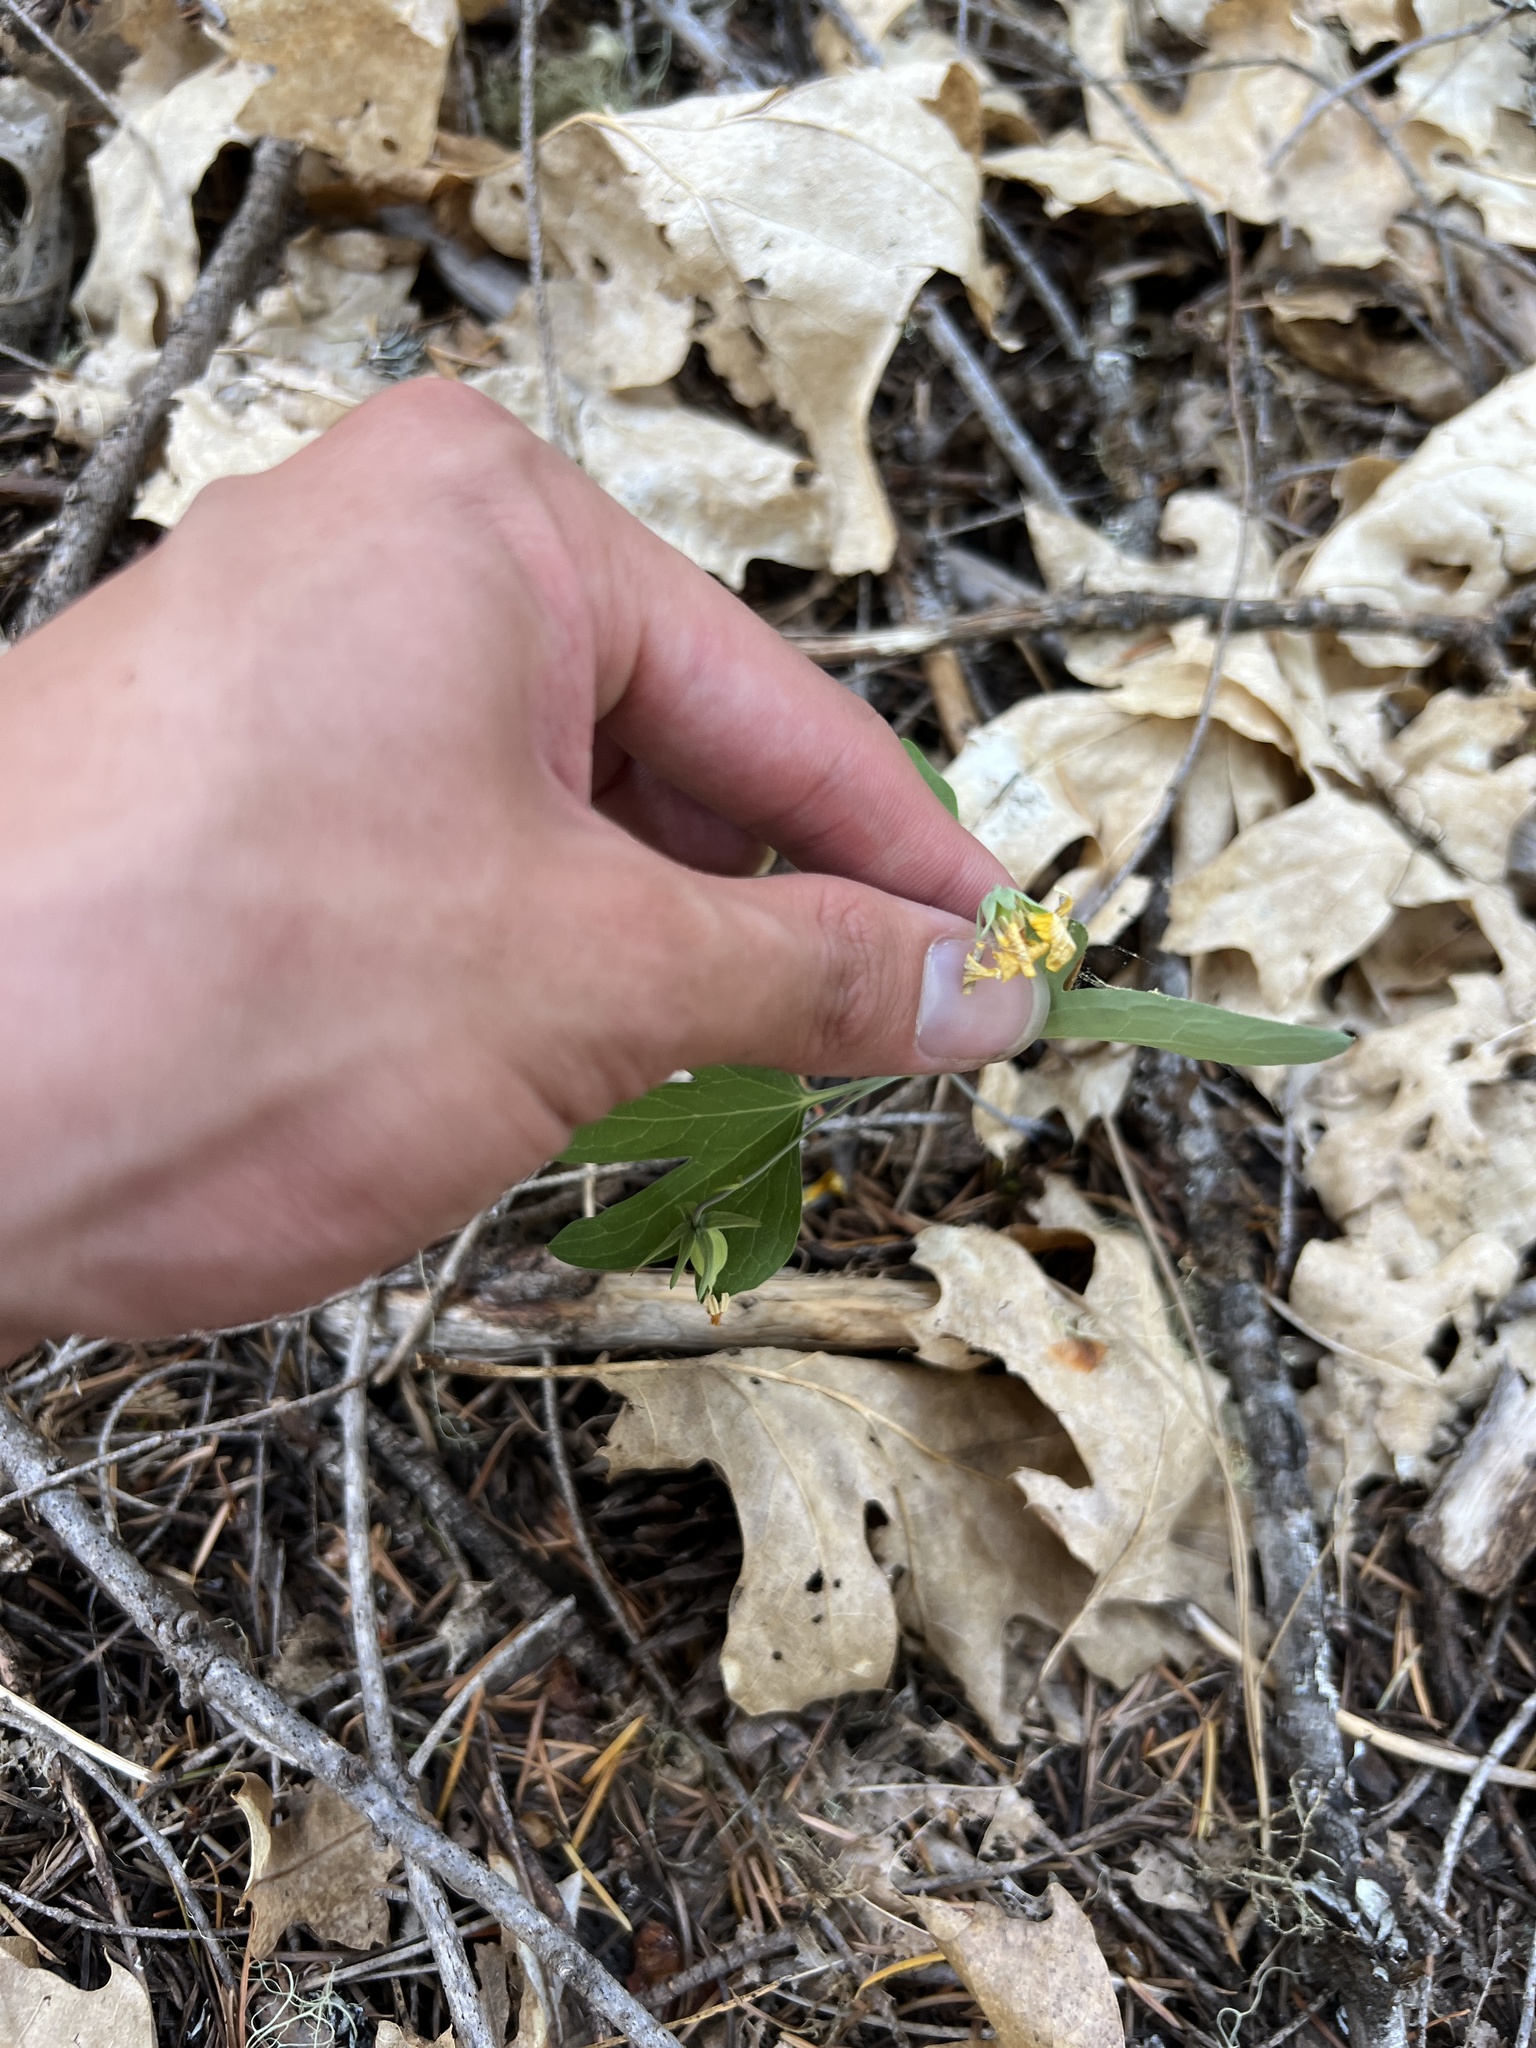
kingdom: Plantae
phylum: Tracheophyta
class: Magnoliopsida
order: Malpighiales
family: Violaceae
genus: Viola
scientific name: Viola lobata
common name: Pine violet
